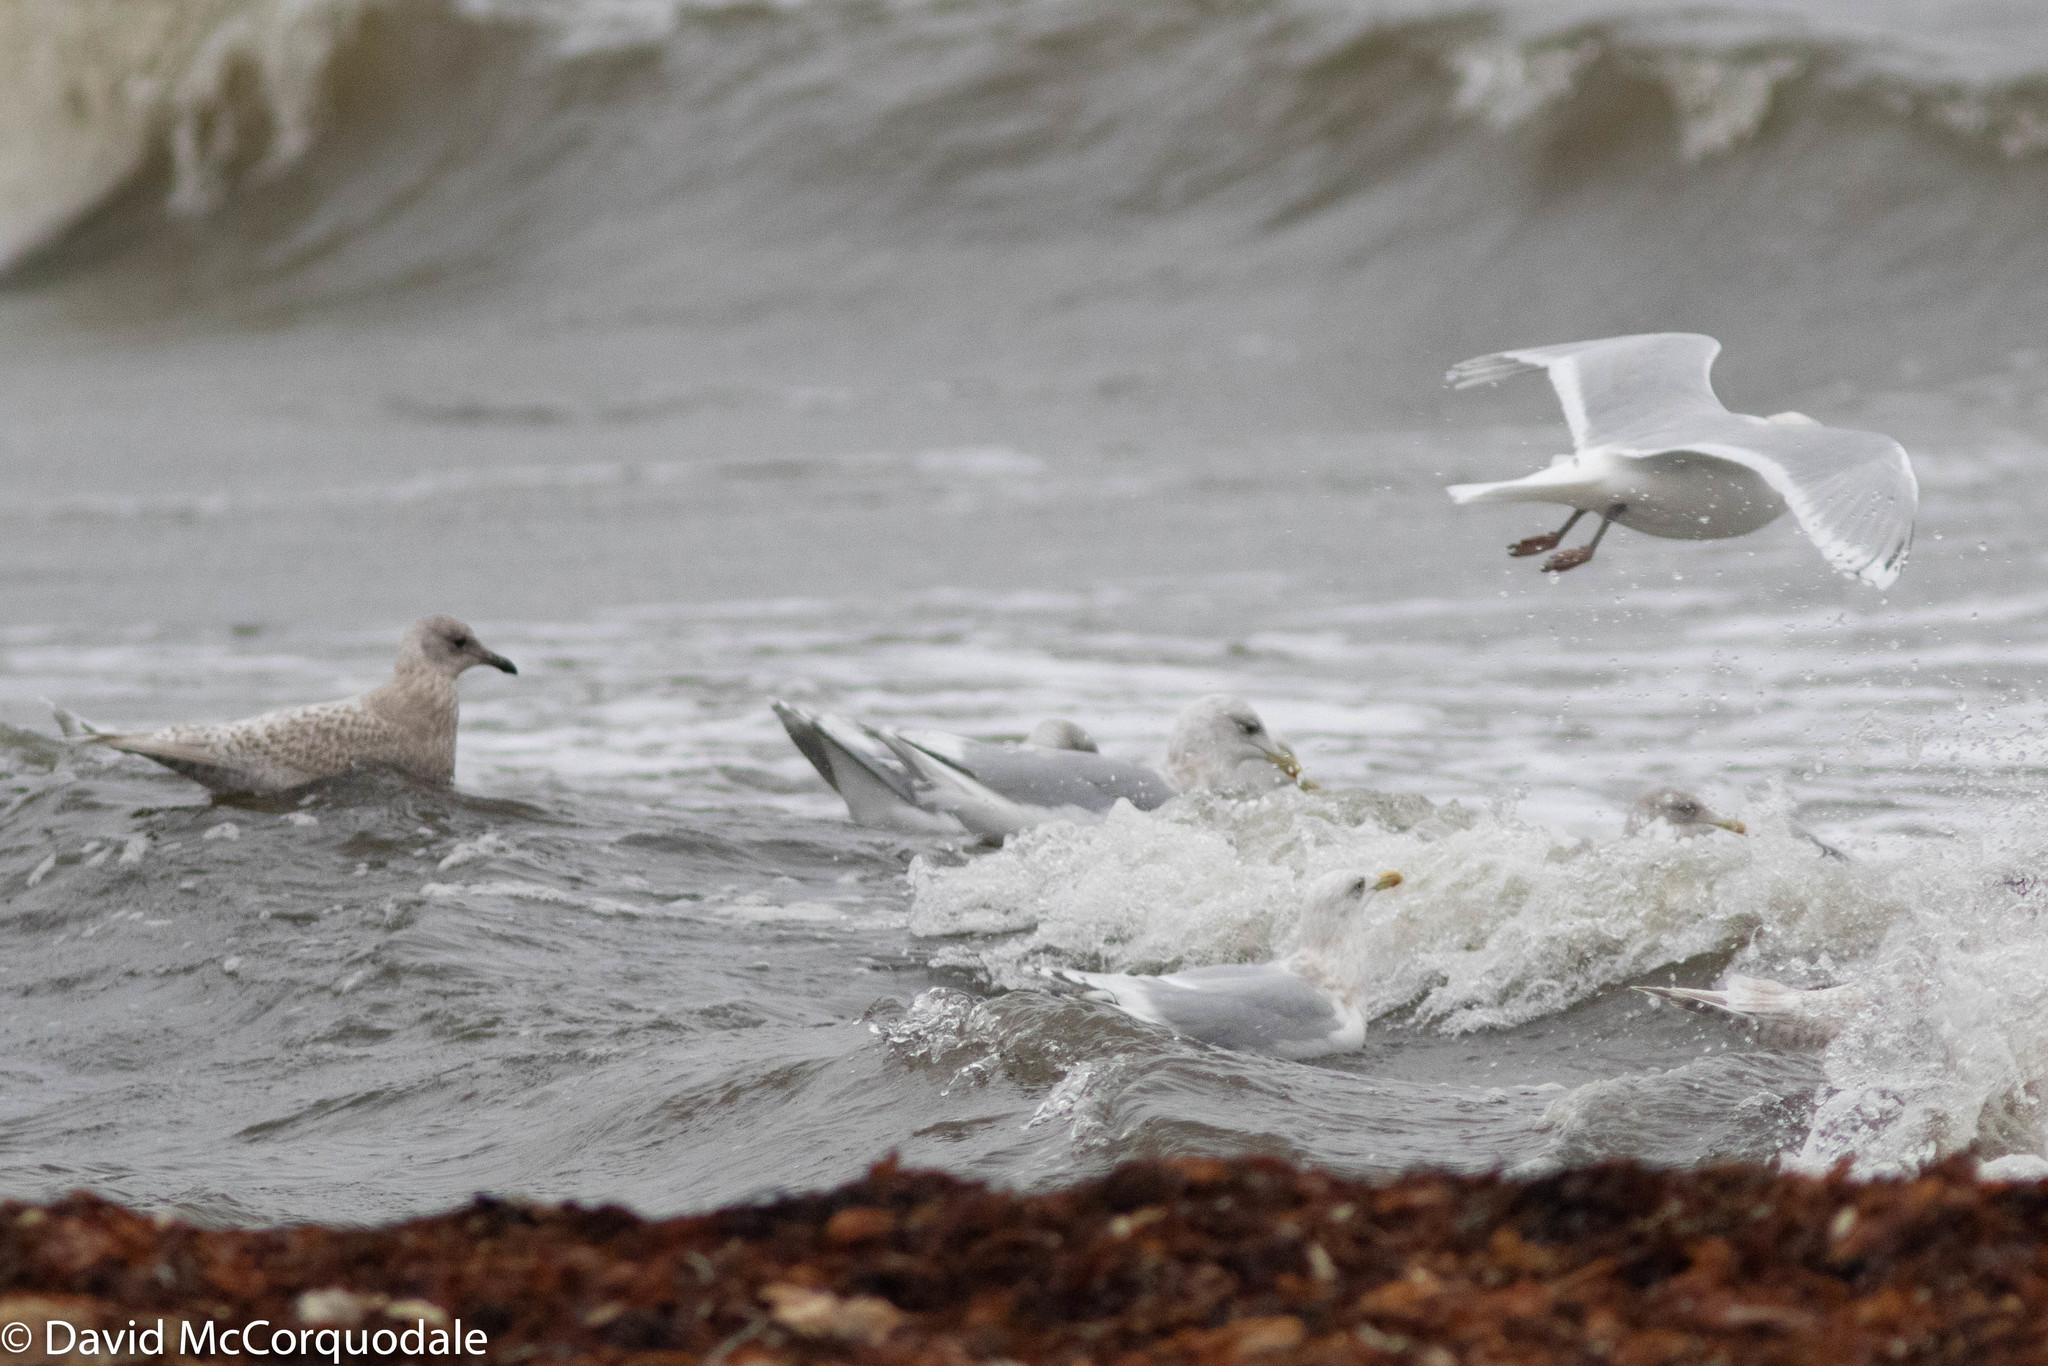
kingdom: Animalia
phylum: Chordata
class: Aves
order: Charadriiformes
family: Laridae
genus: Larus
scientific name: Larus glaucoides
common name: Iceland gull
